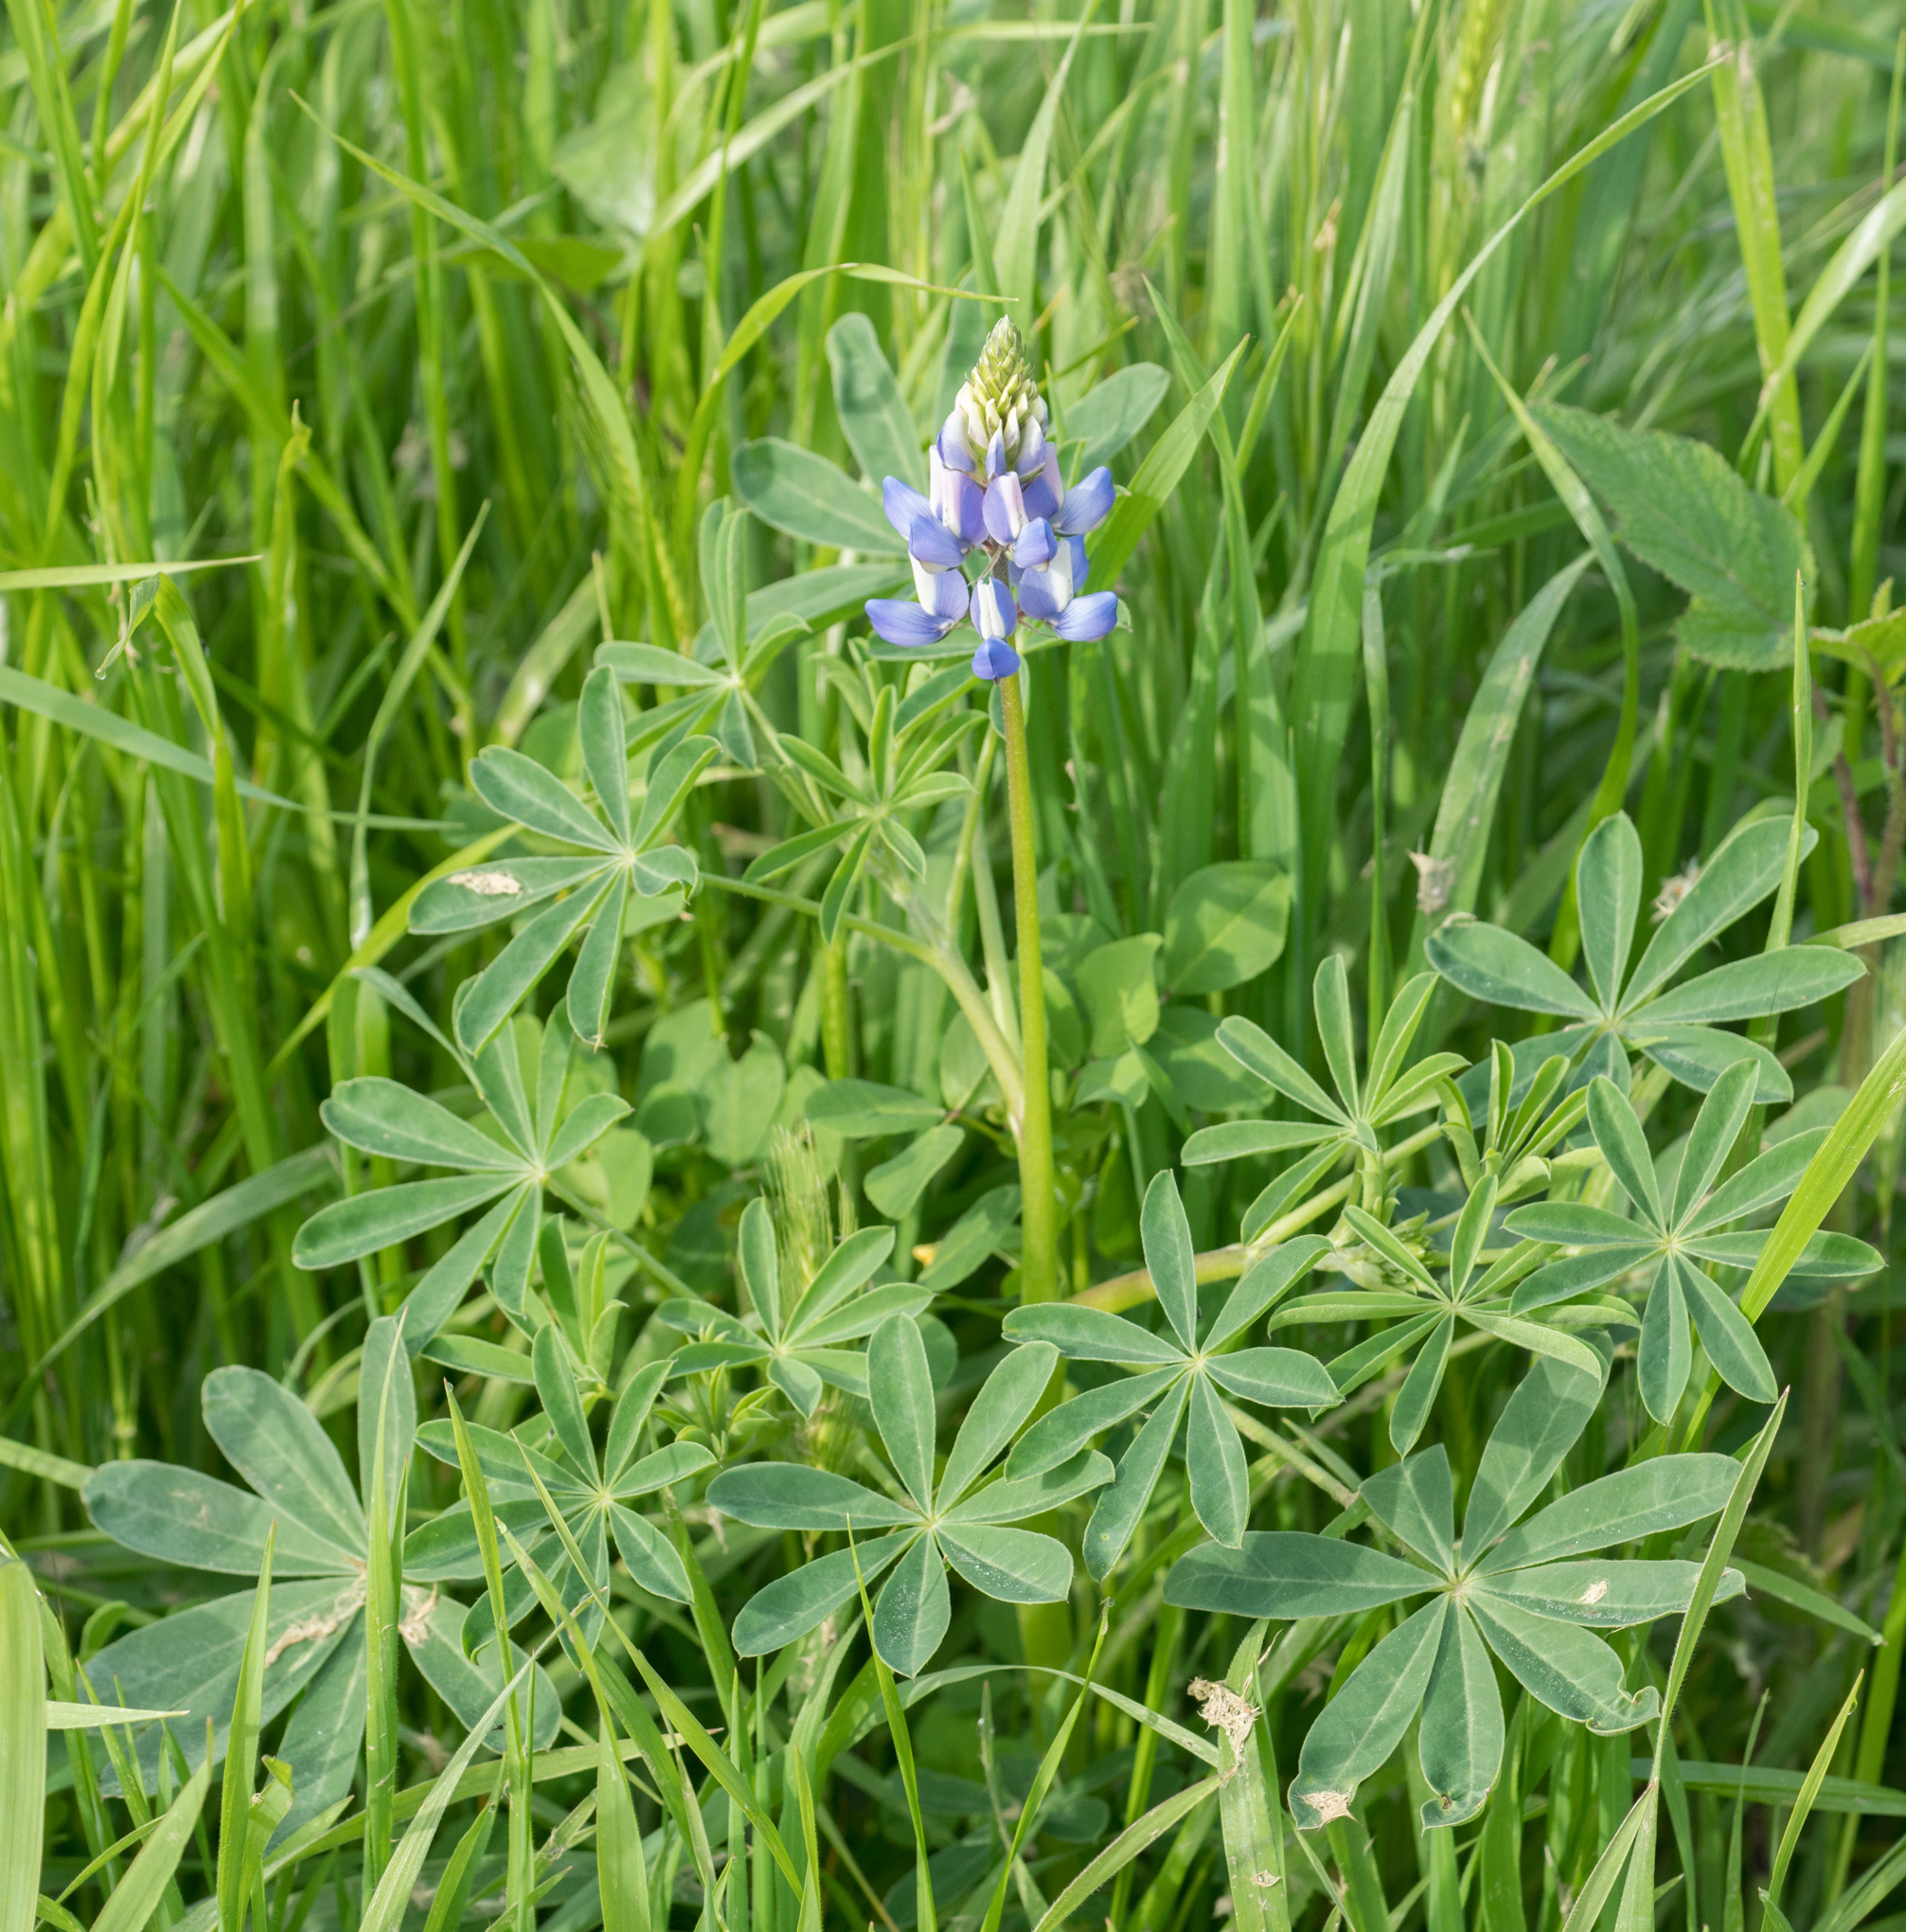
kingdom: Plantae
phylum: Tracheophyta
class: Magnoliopsida
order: Fabales
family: Fabaceae
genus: Lupinus
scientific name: Lupinus succulentus
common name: Arroyo lupine
